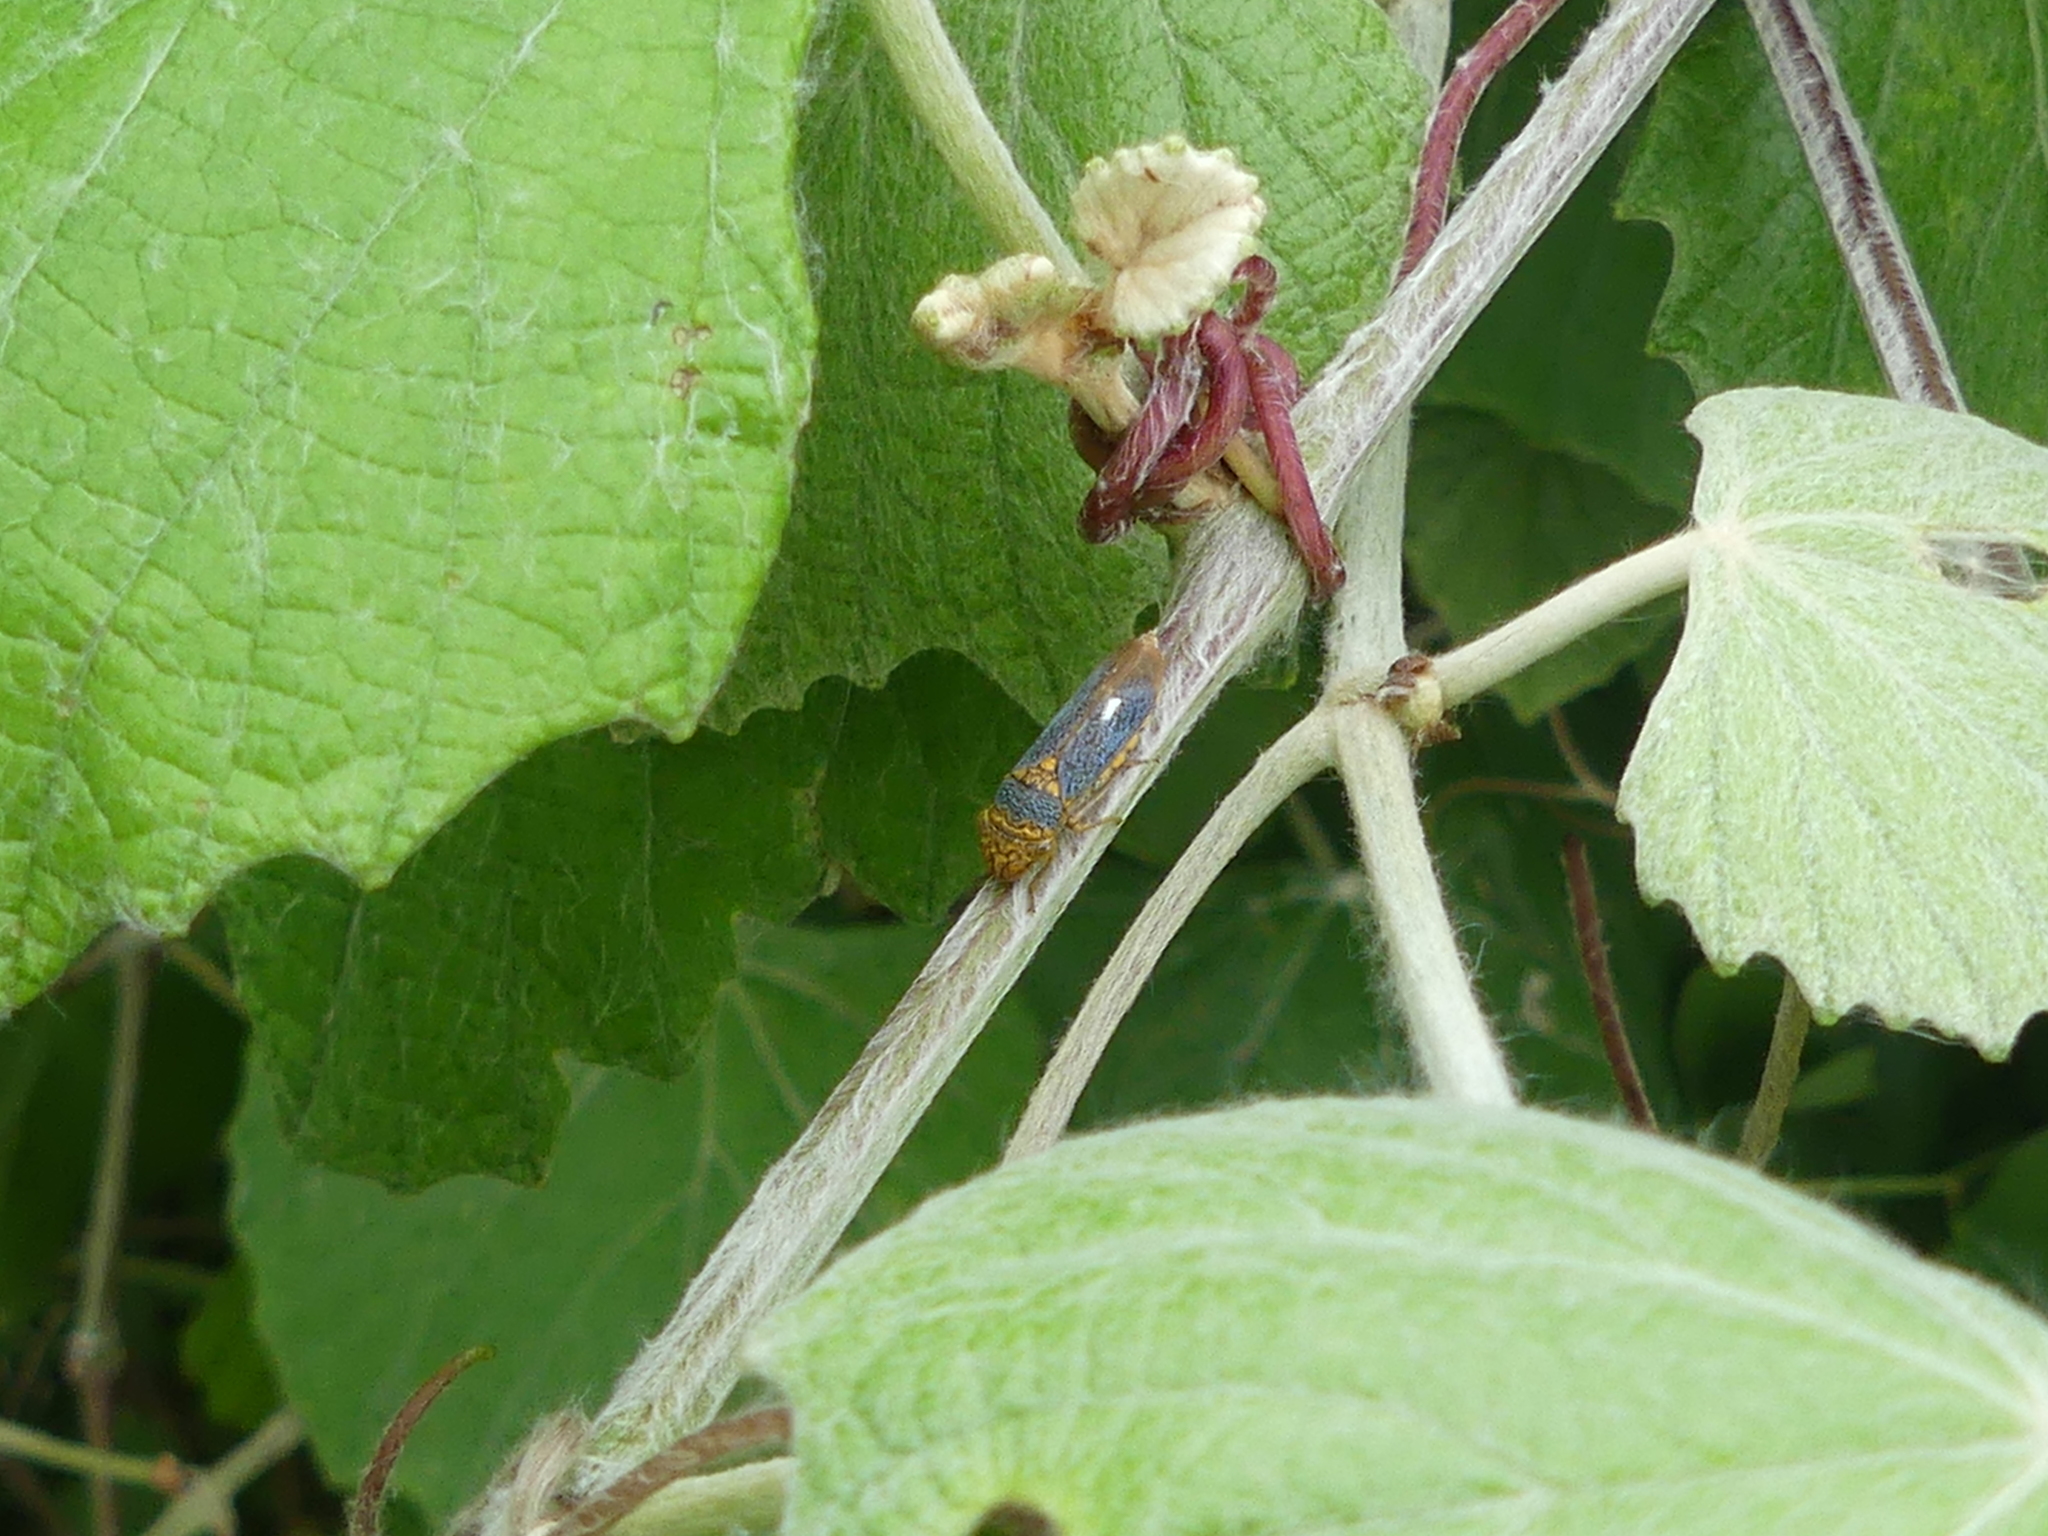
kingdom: Animalia
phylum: Arthropoda
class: Insecta
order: Hemiptera
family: Cicadellidae
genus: Oncometopia
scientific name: Oncometopia orbona
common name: Broad-headed sharpshooter
